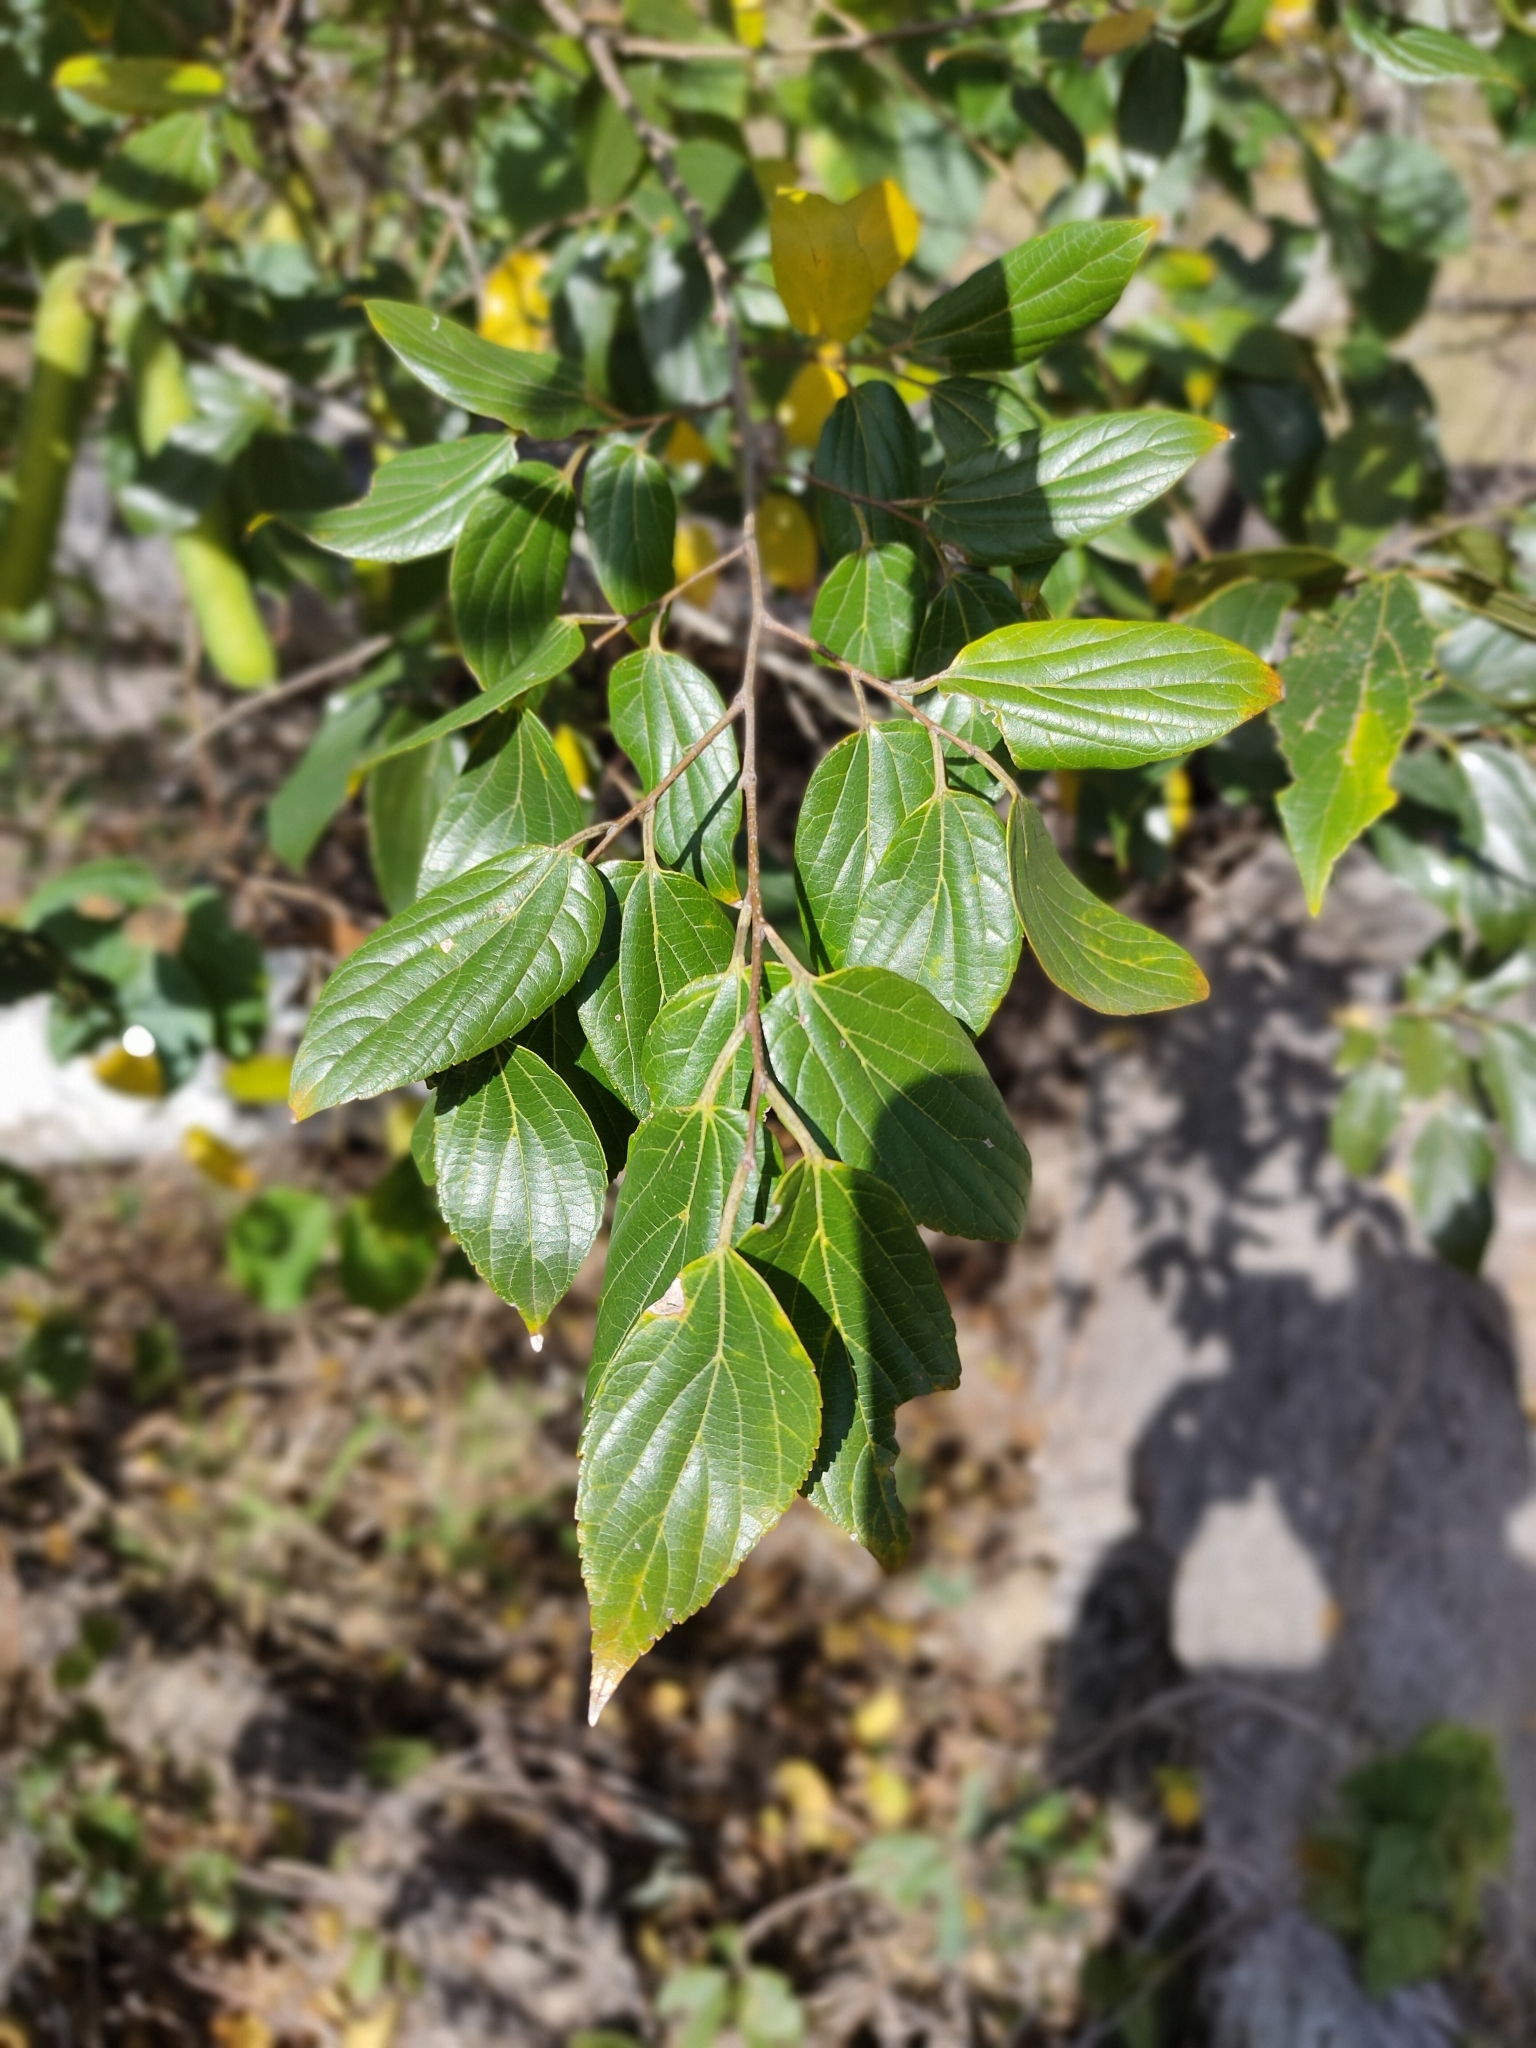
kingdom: Plantae
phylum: Tracheophyta
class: Magnoliopsida
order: Rosales
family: Cannabaceae
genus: Celtis
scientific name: Celtis sinensis
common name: Chinese hackberry
